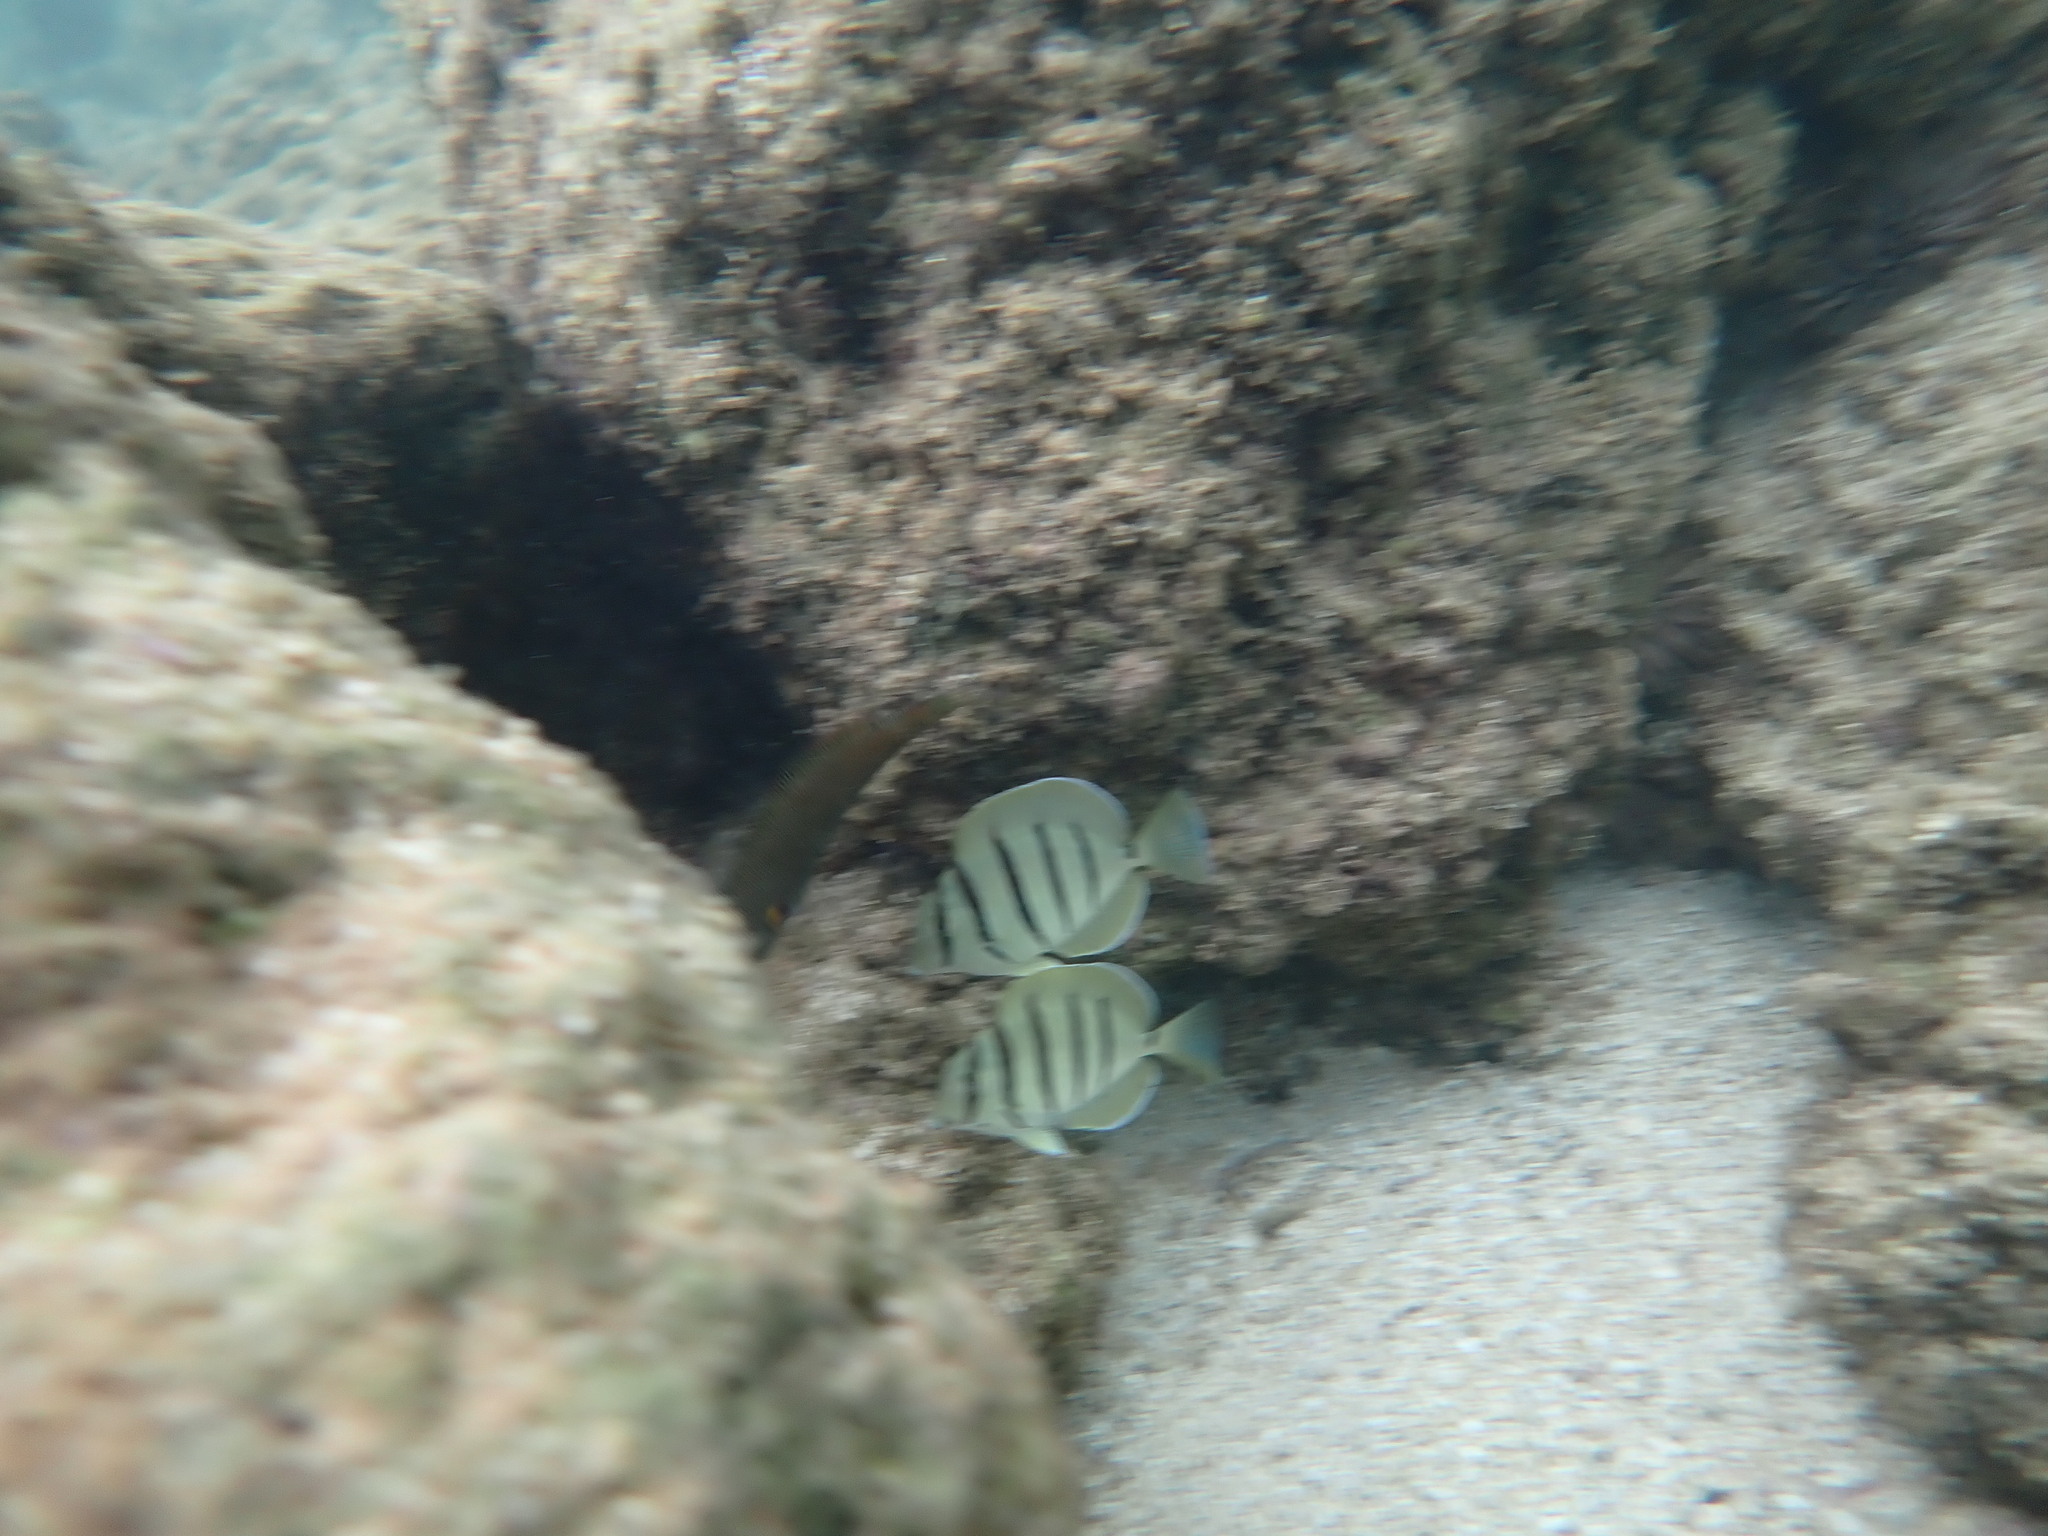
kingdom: Animalia
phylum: Chordata
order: Perciformes
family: Acanthuridae
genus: Acanthurus
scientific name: Acanthurus triostegus
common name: Convict surgeonfish
